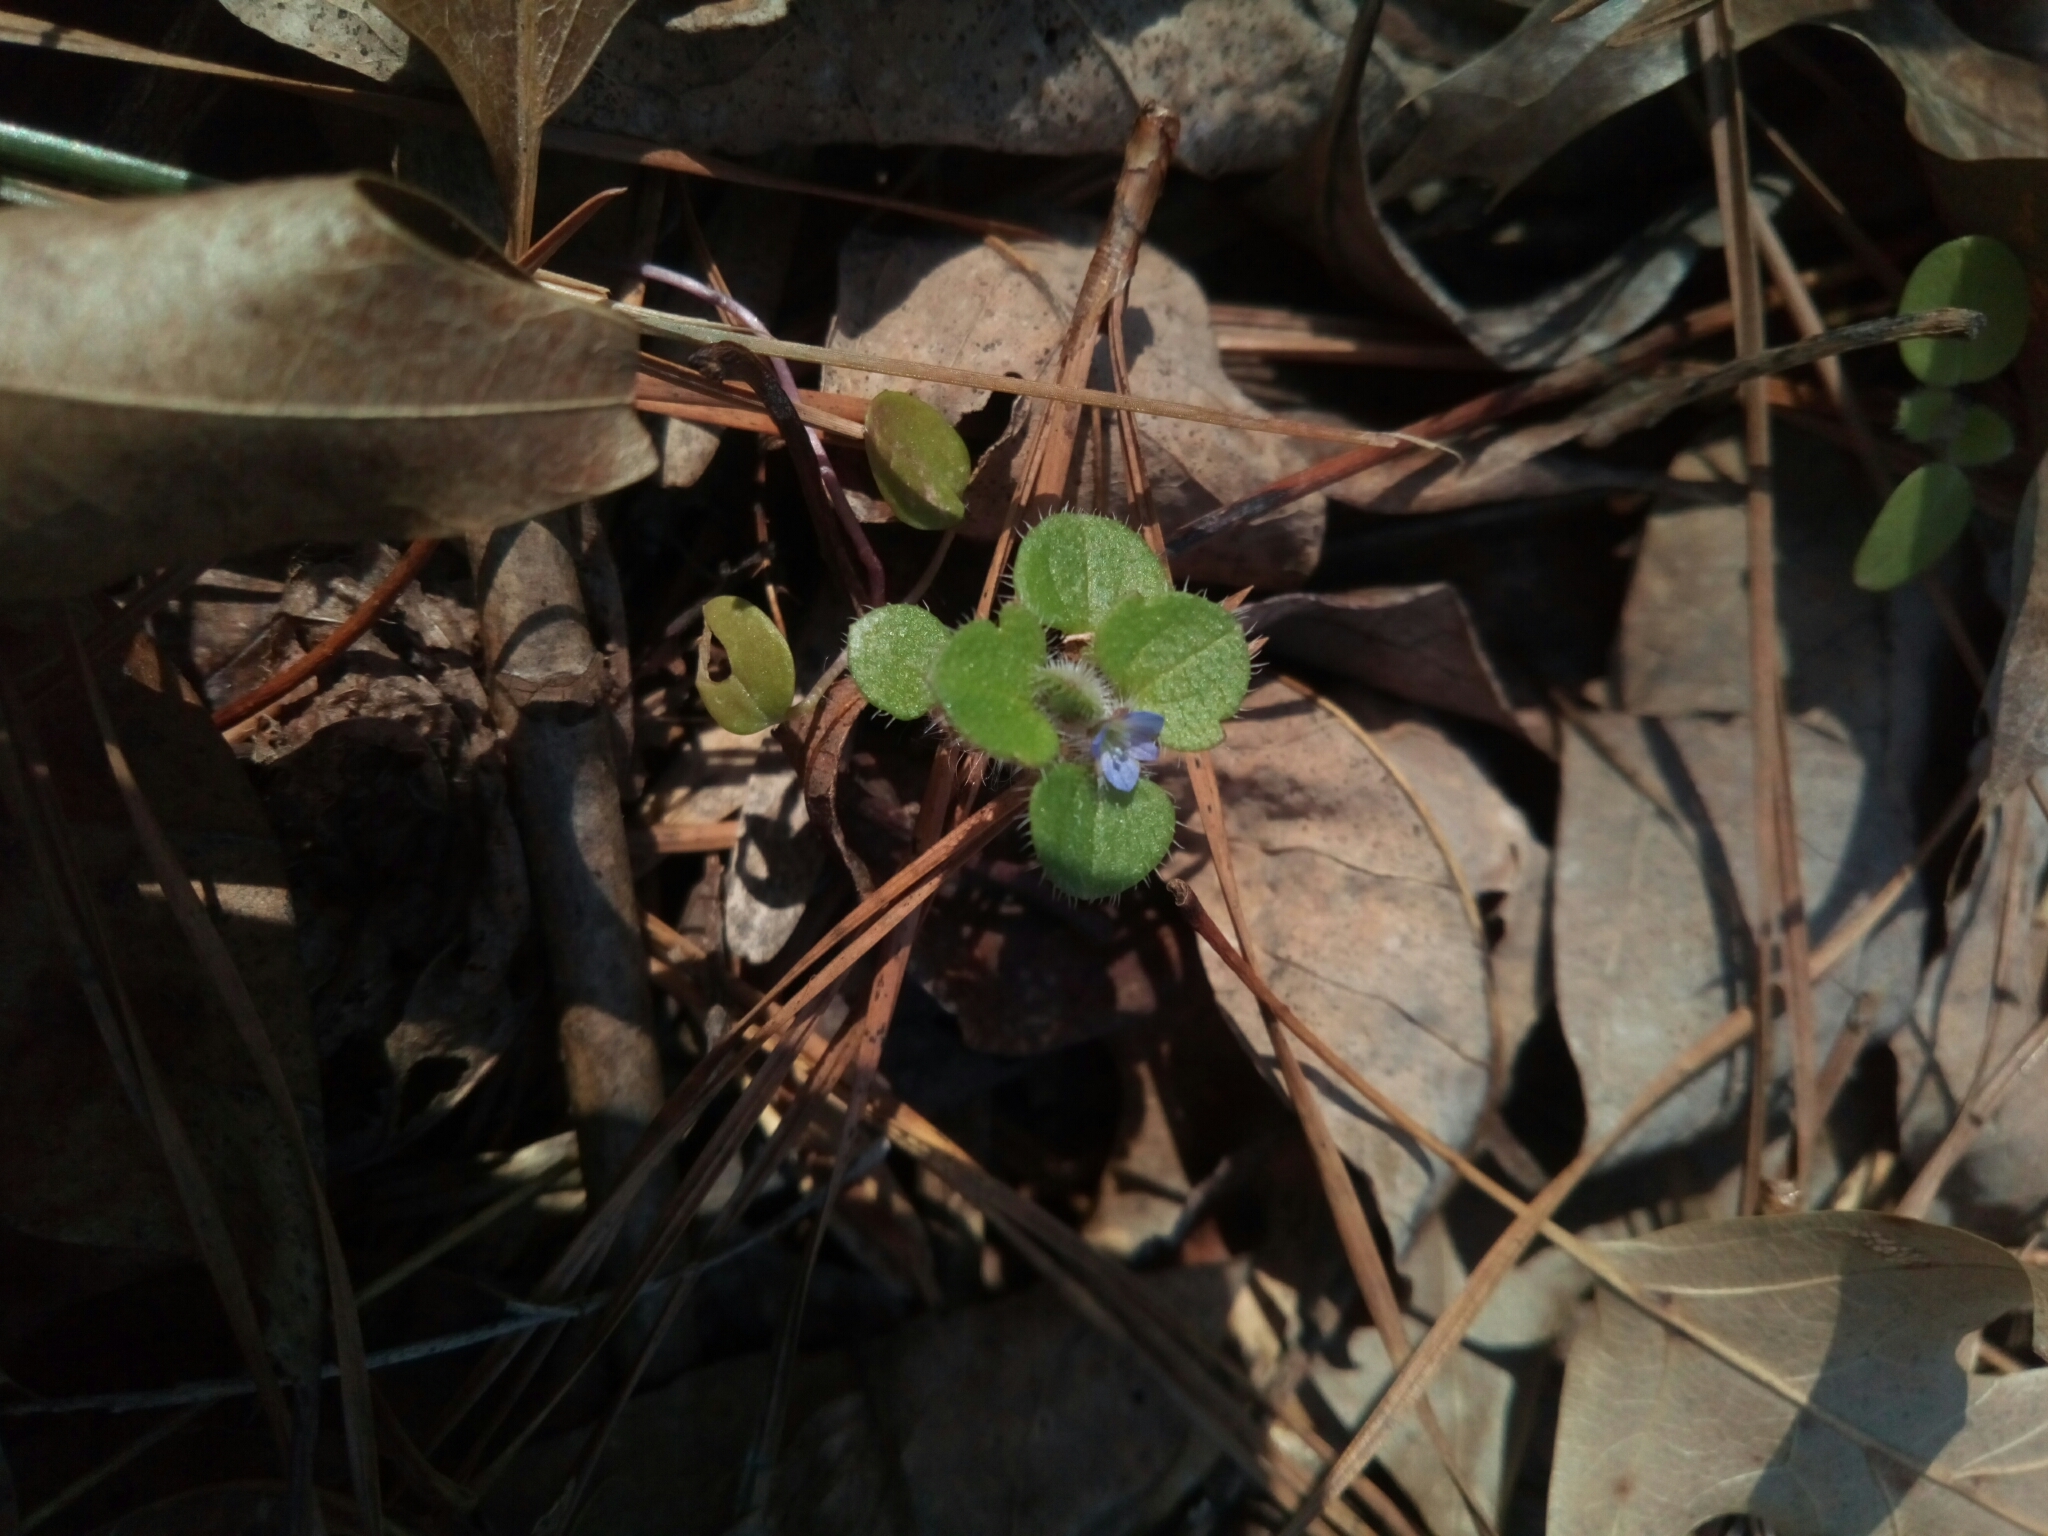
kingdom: Plantae
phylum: Tracheophyta
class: Magnoliopsida
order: Lamiales
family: Plantaginaceae
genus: Veronica
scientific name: Veronica hederifolia
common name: Ivy-leaved speedwell
